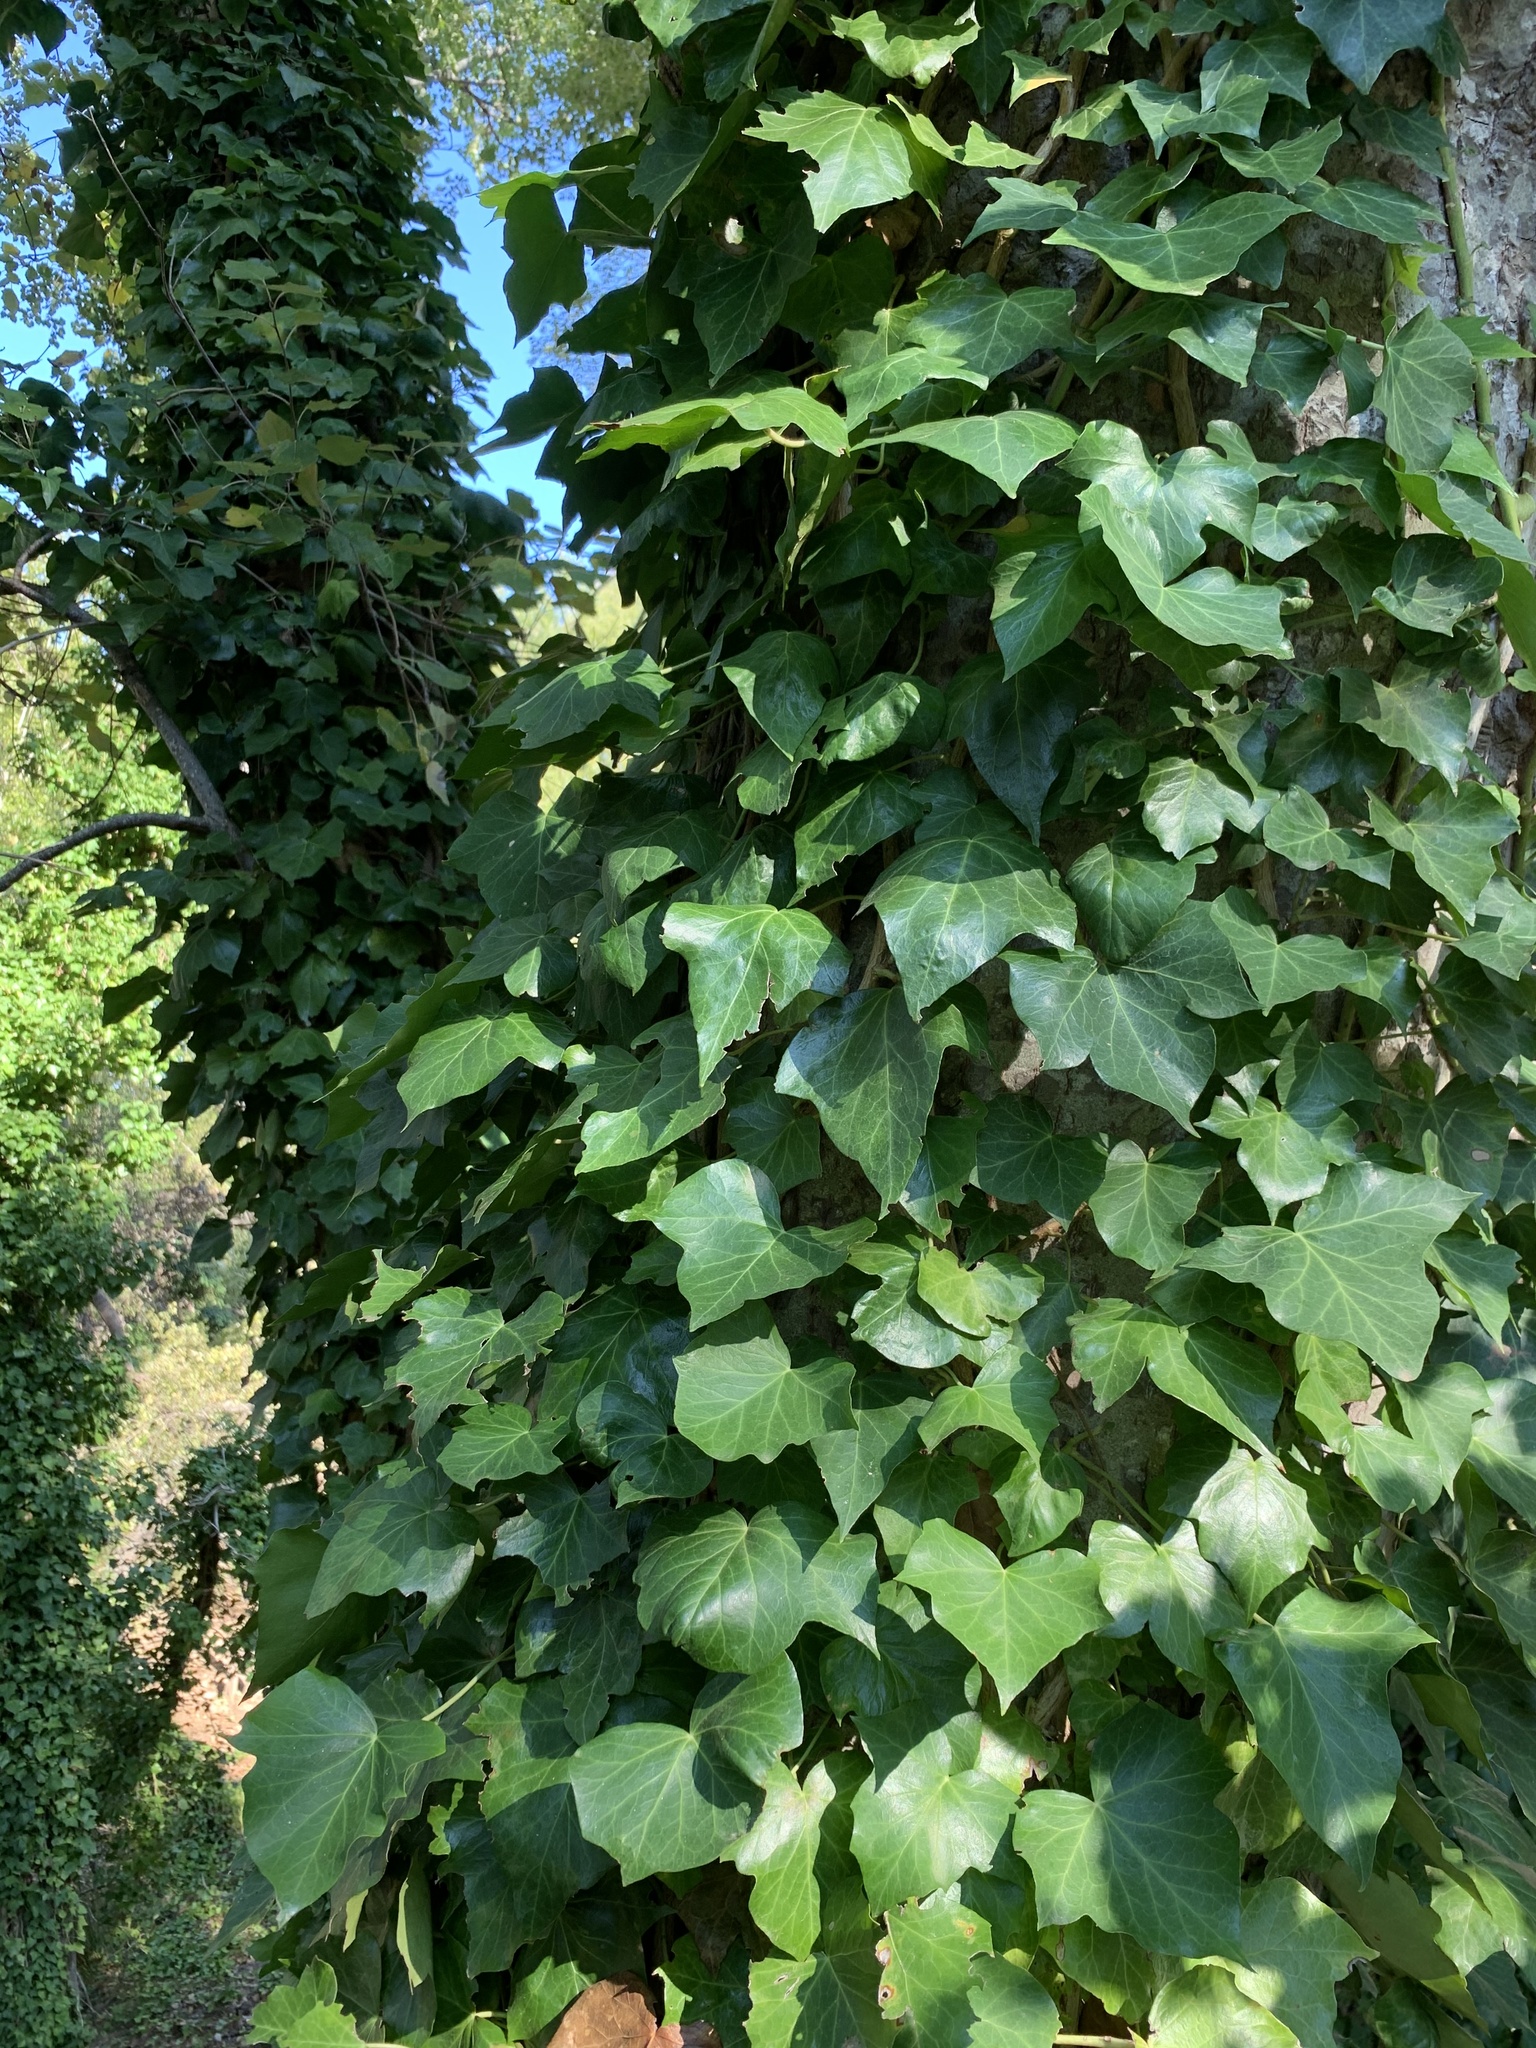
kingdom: Plantae
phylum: Tracheophyta
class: Magnoliopsida
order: Apiales
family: Araliaceae
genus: Hedera
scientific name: Hedera helix
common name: Ivy
